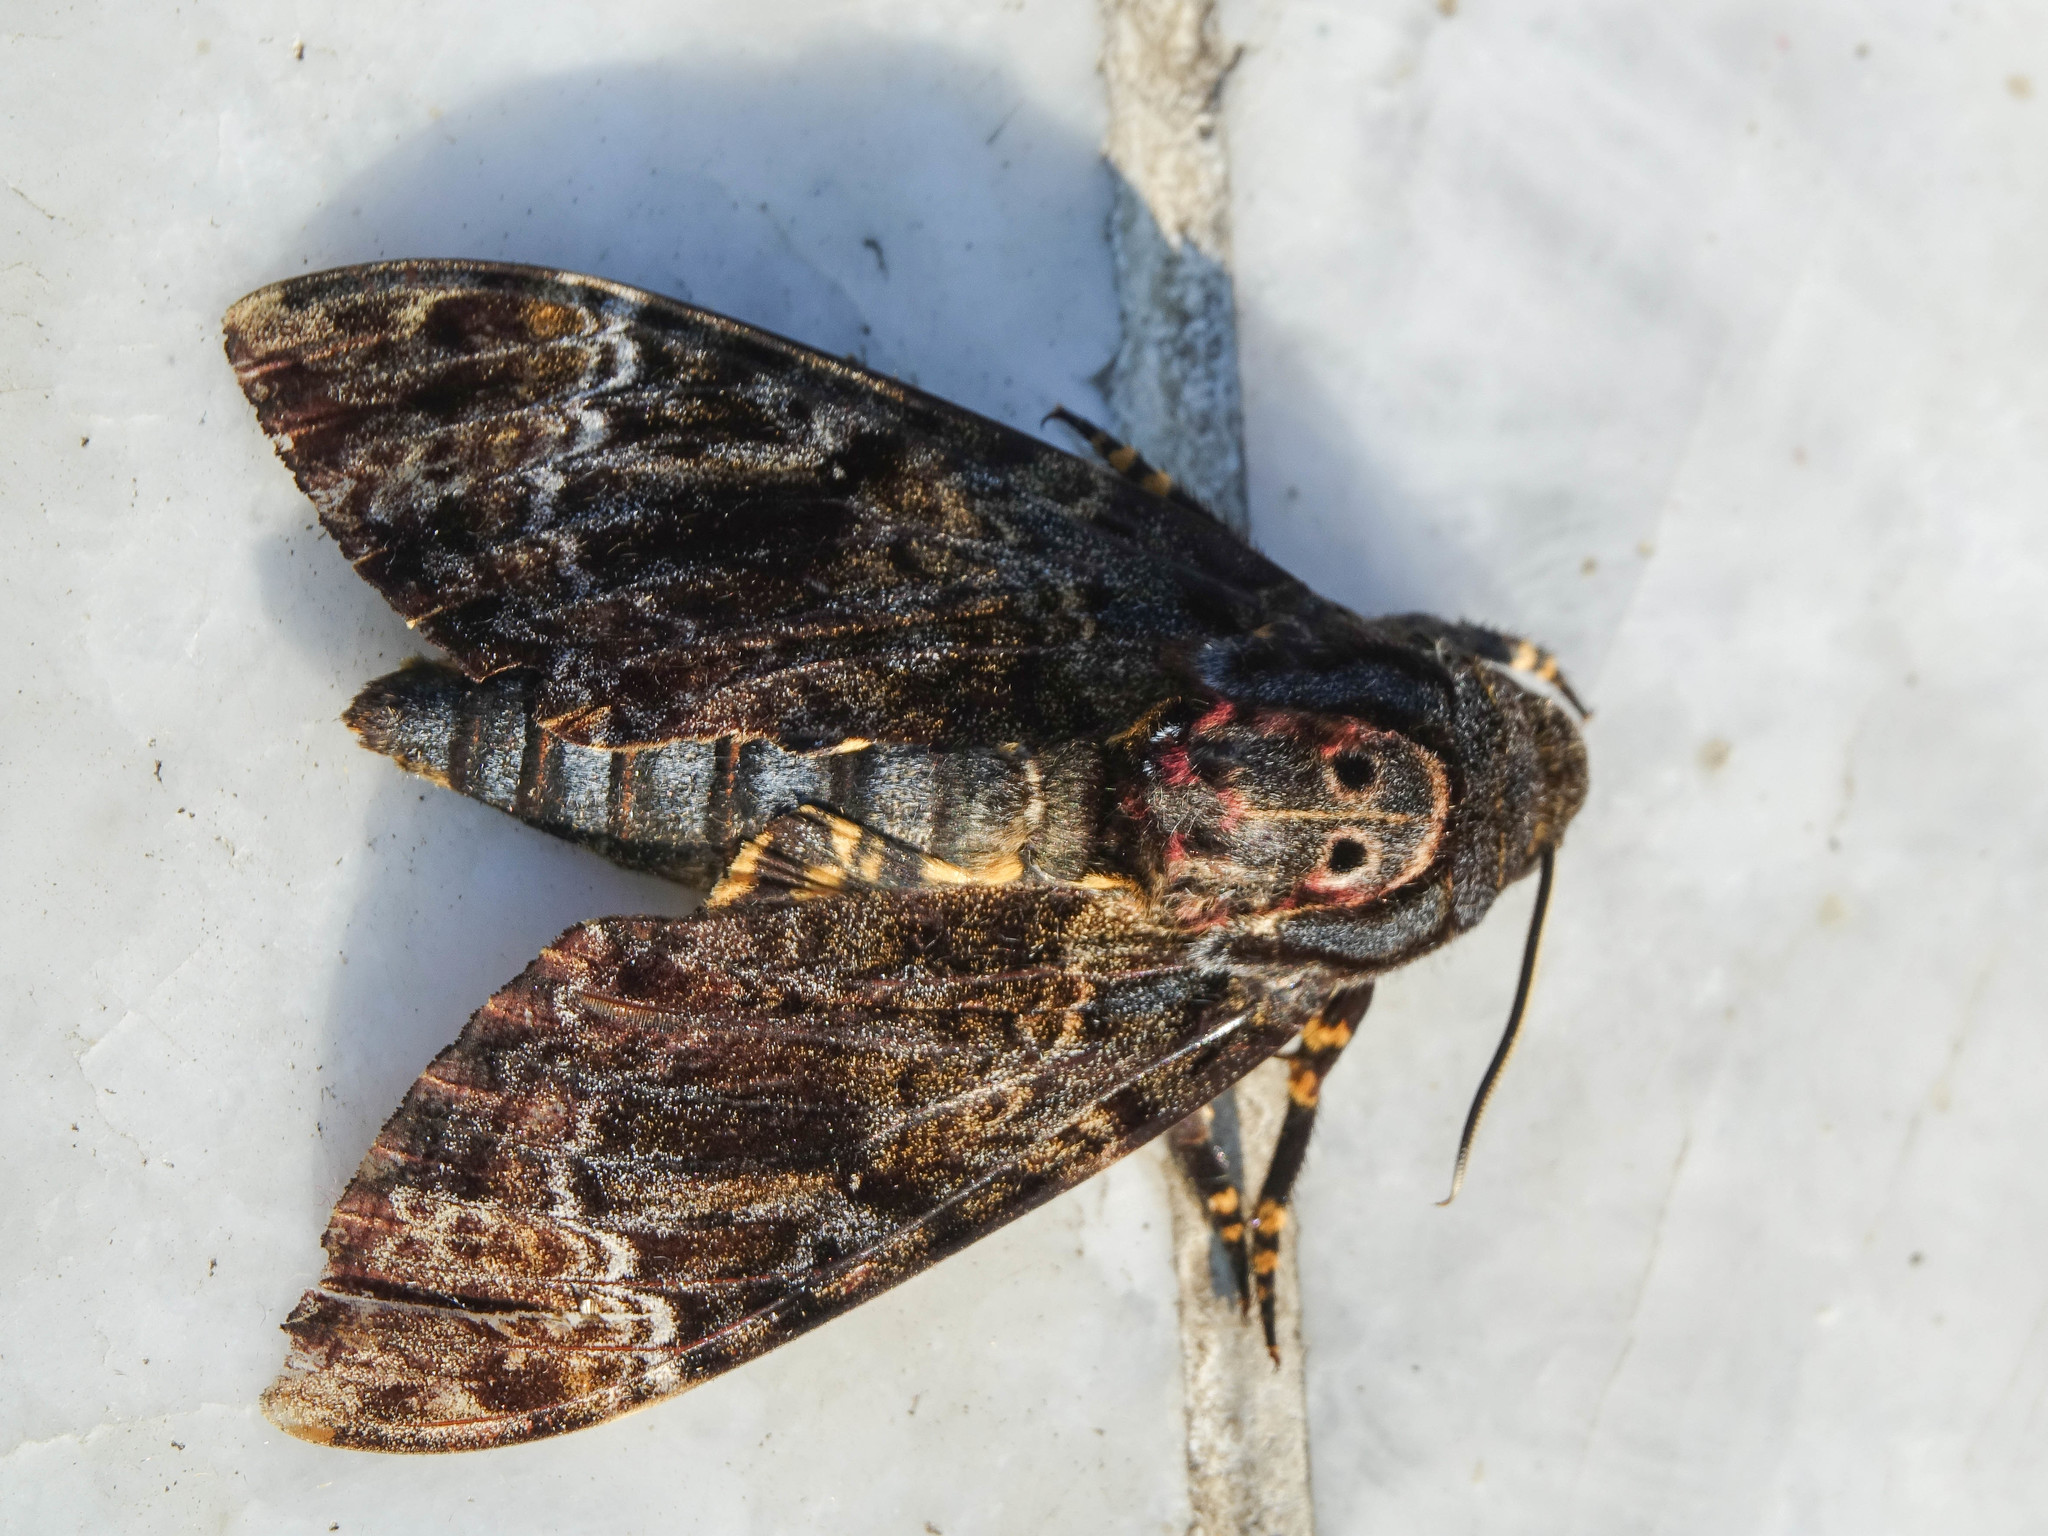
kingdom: Animalia
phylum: Arthropoda
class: Insecta
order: Lepidoptera
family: Sphingidae
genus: Acherontia
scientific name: Acherontia lachesis
